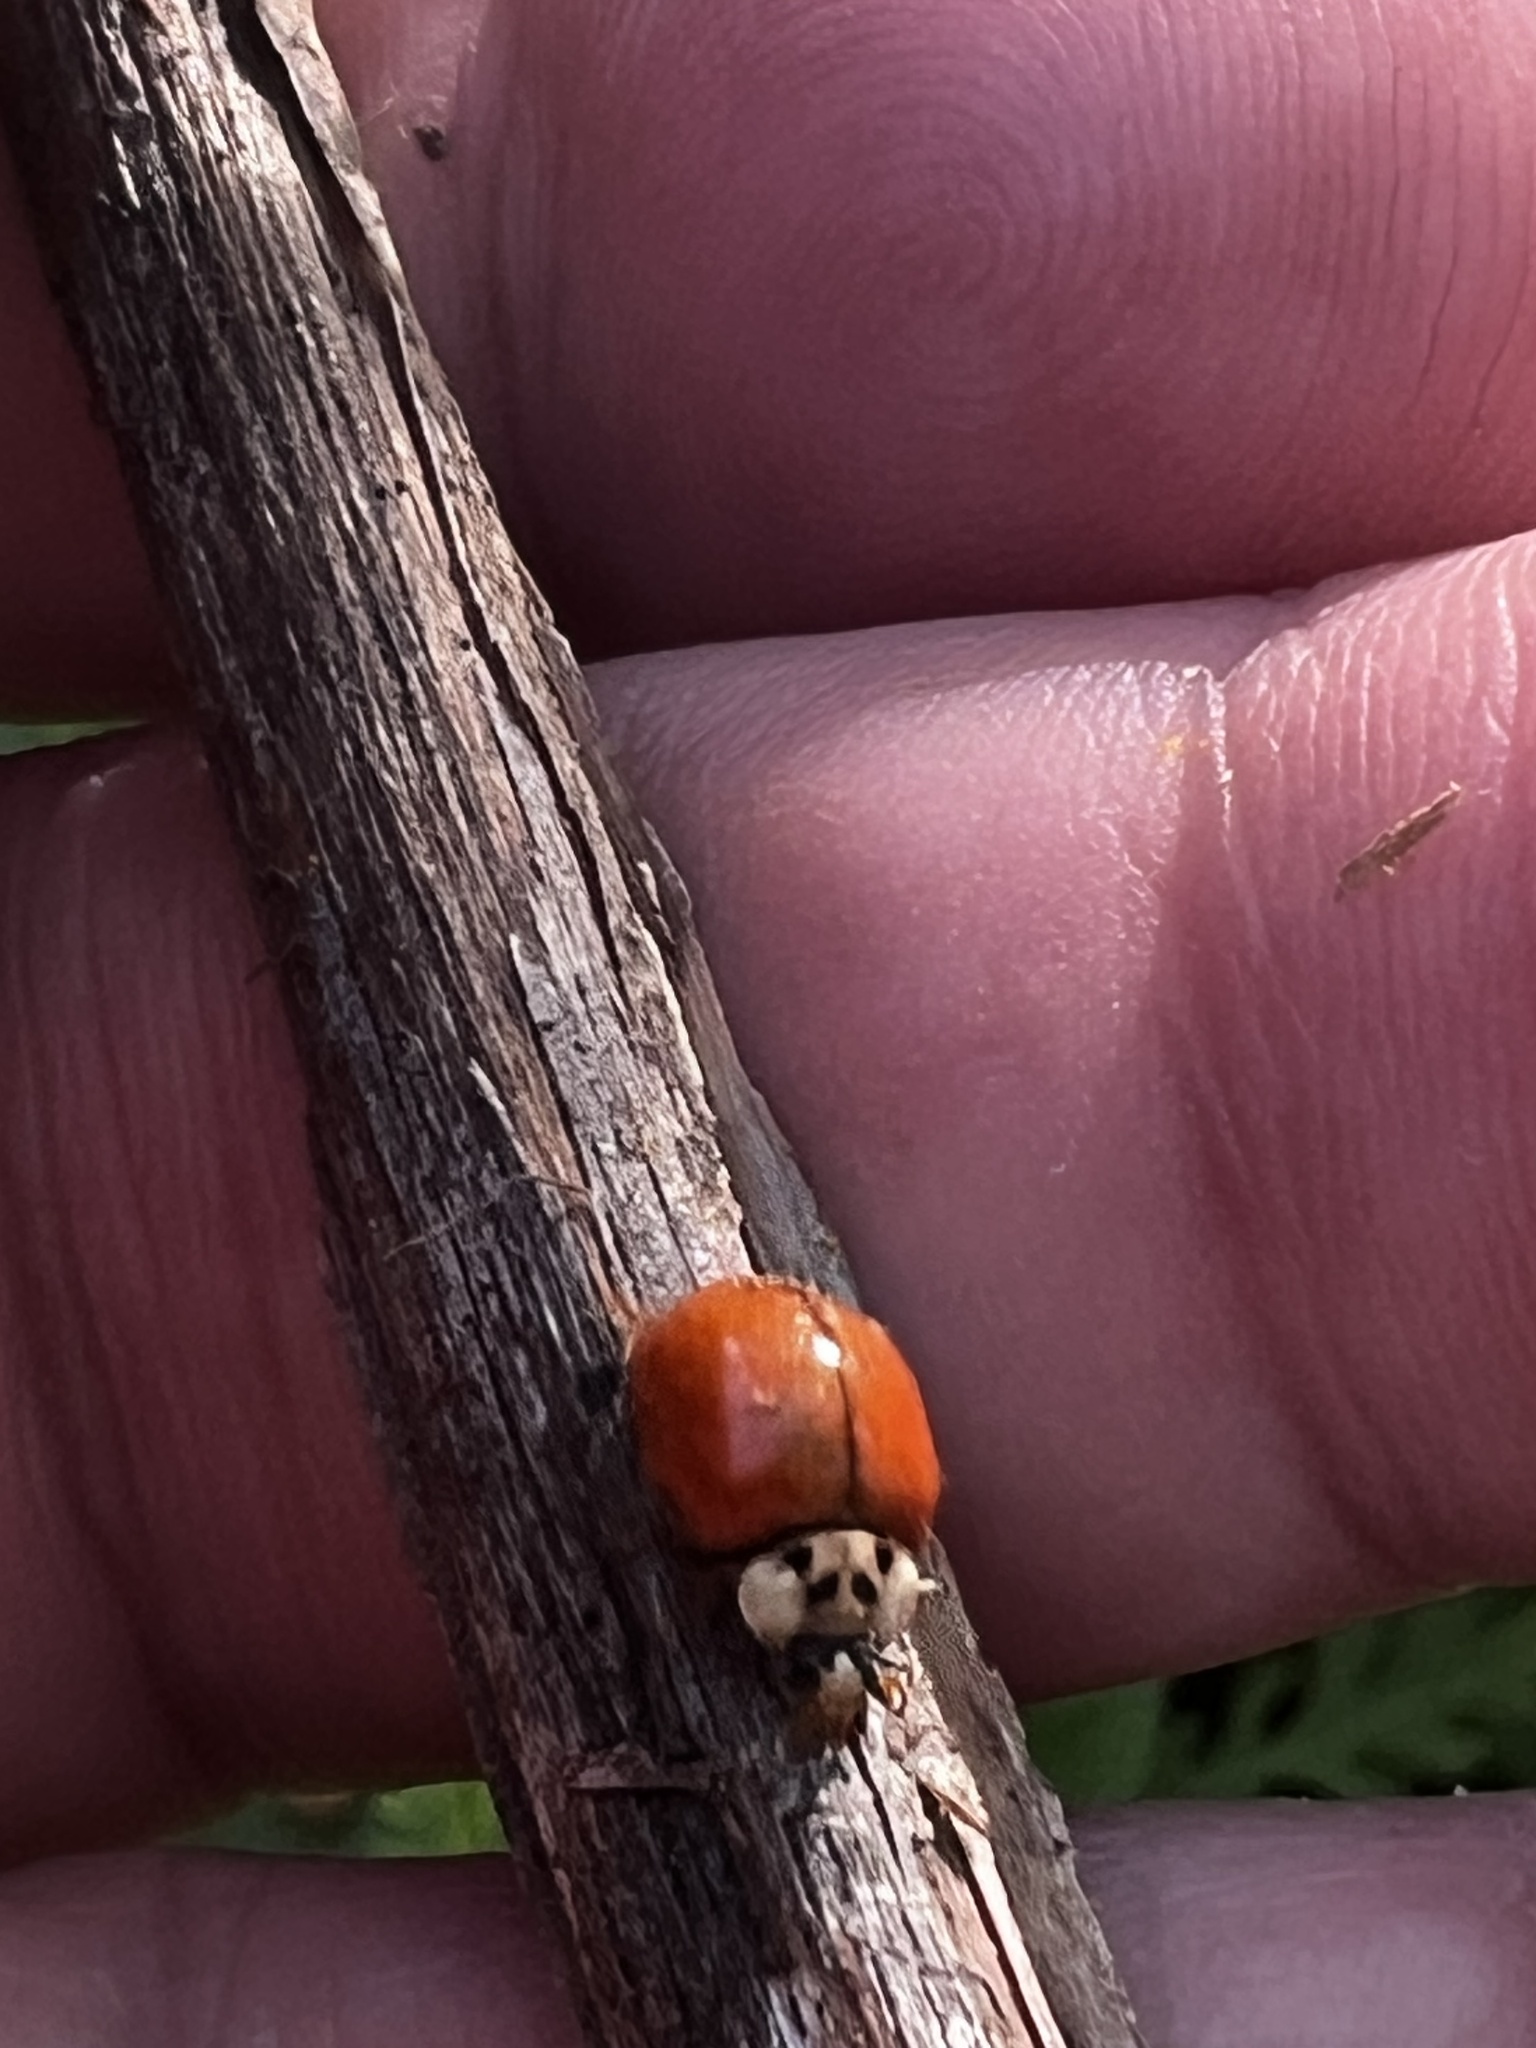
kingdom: Animalia
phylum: Arthropoda
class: Insecta
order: Coleoptera
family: Coccinellidae
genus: Harmonia
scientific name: Harmonia axyridis
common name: Harlequin ladybird
